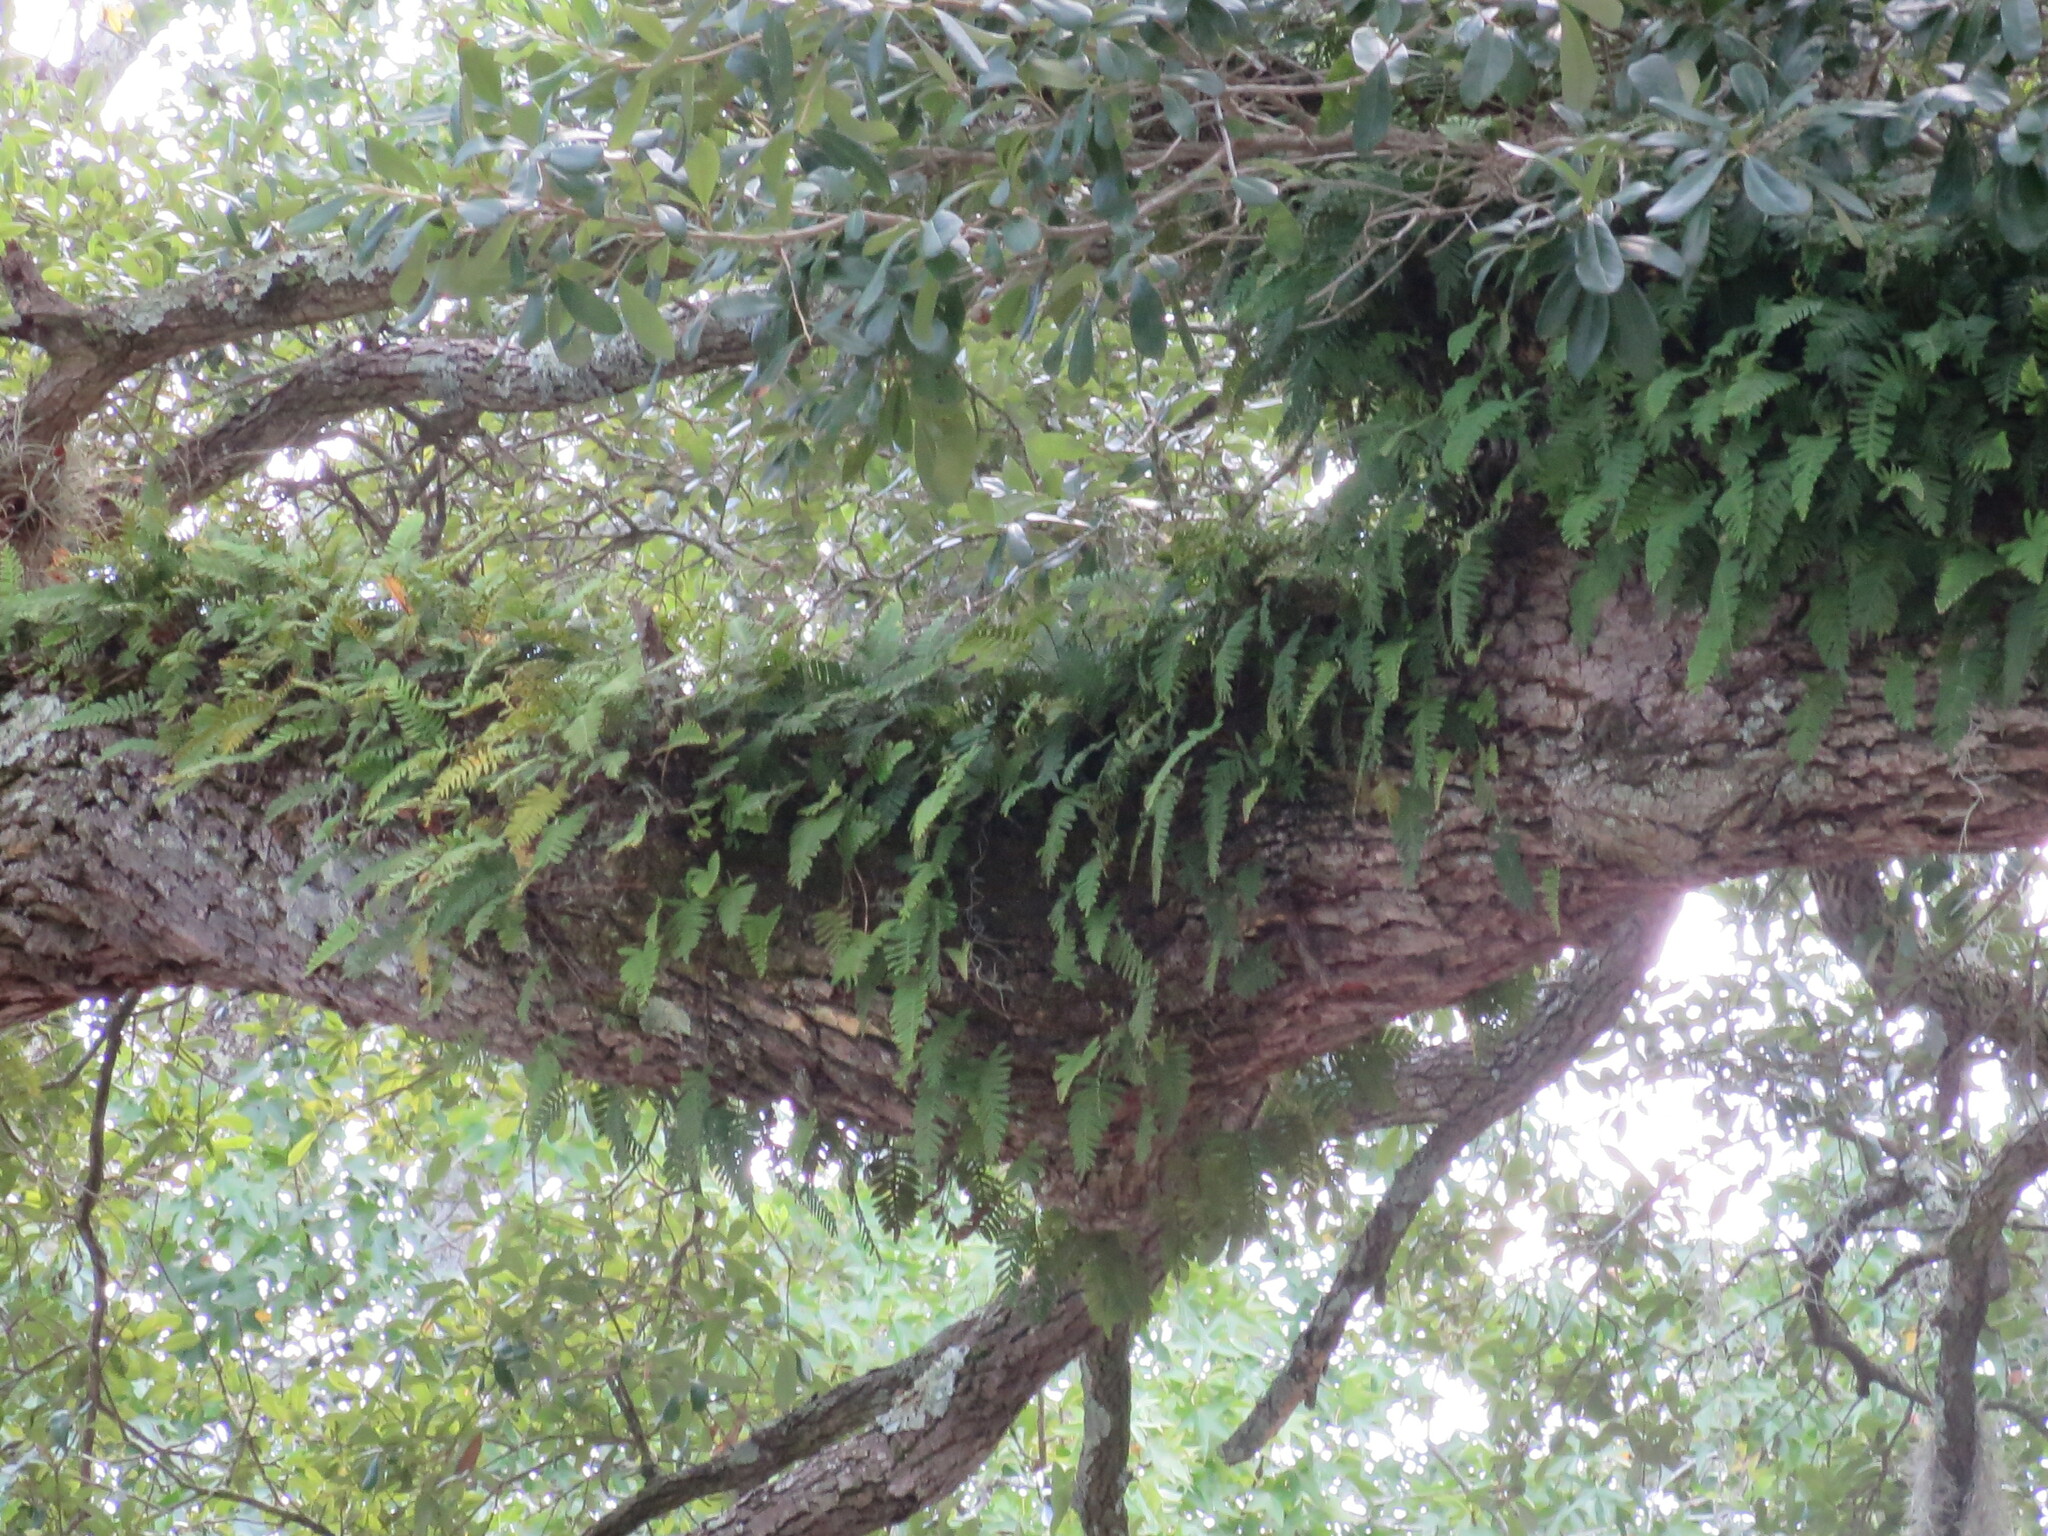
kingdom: Plantae
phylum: Tracheophyta
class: Polypodiopsida
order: Polypodiales
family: Polypodiaceae
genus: Pleopeltis
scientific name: Pleopeltis michauxiana
